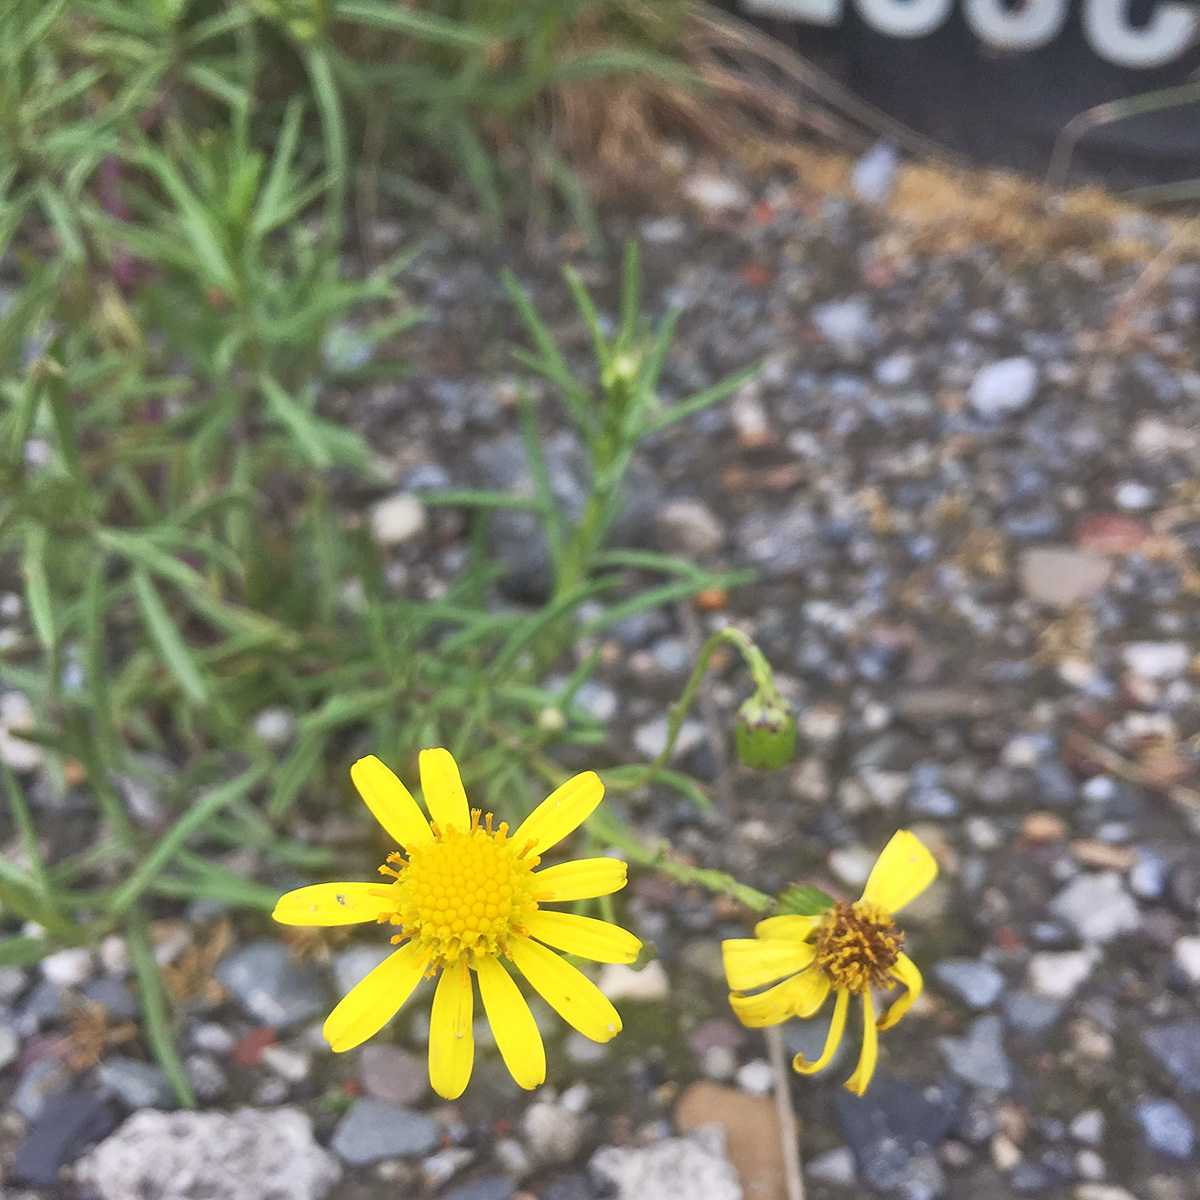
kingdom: Plantae
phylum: Tracheophyta
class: Magnoliopsida
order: Asterales
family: Asteraceae
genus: Senecio
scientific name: Senecio inaequidens
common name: Narrow-leaved ragwort
